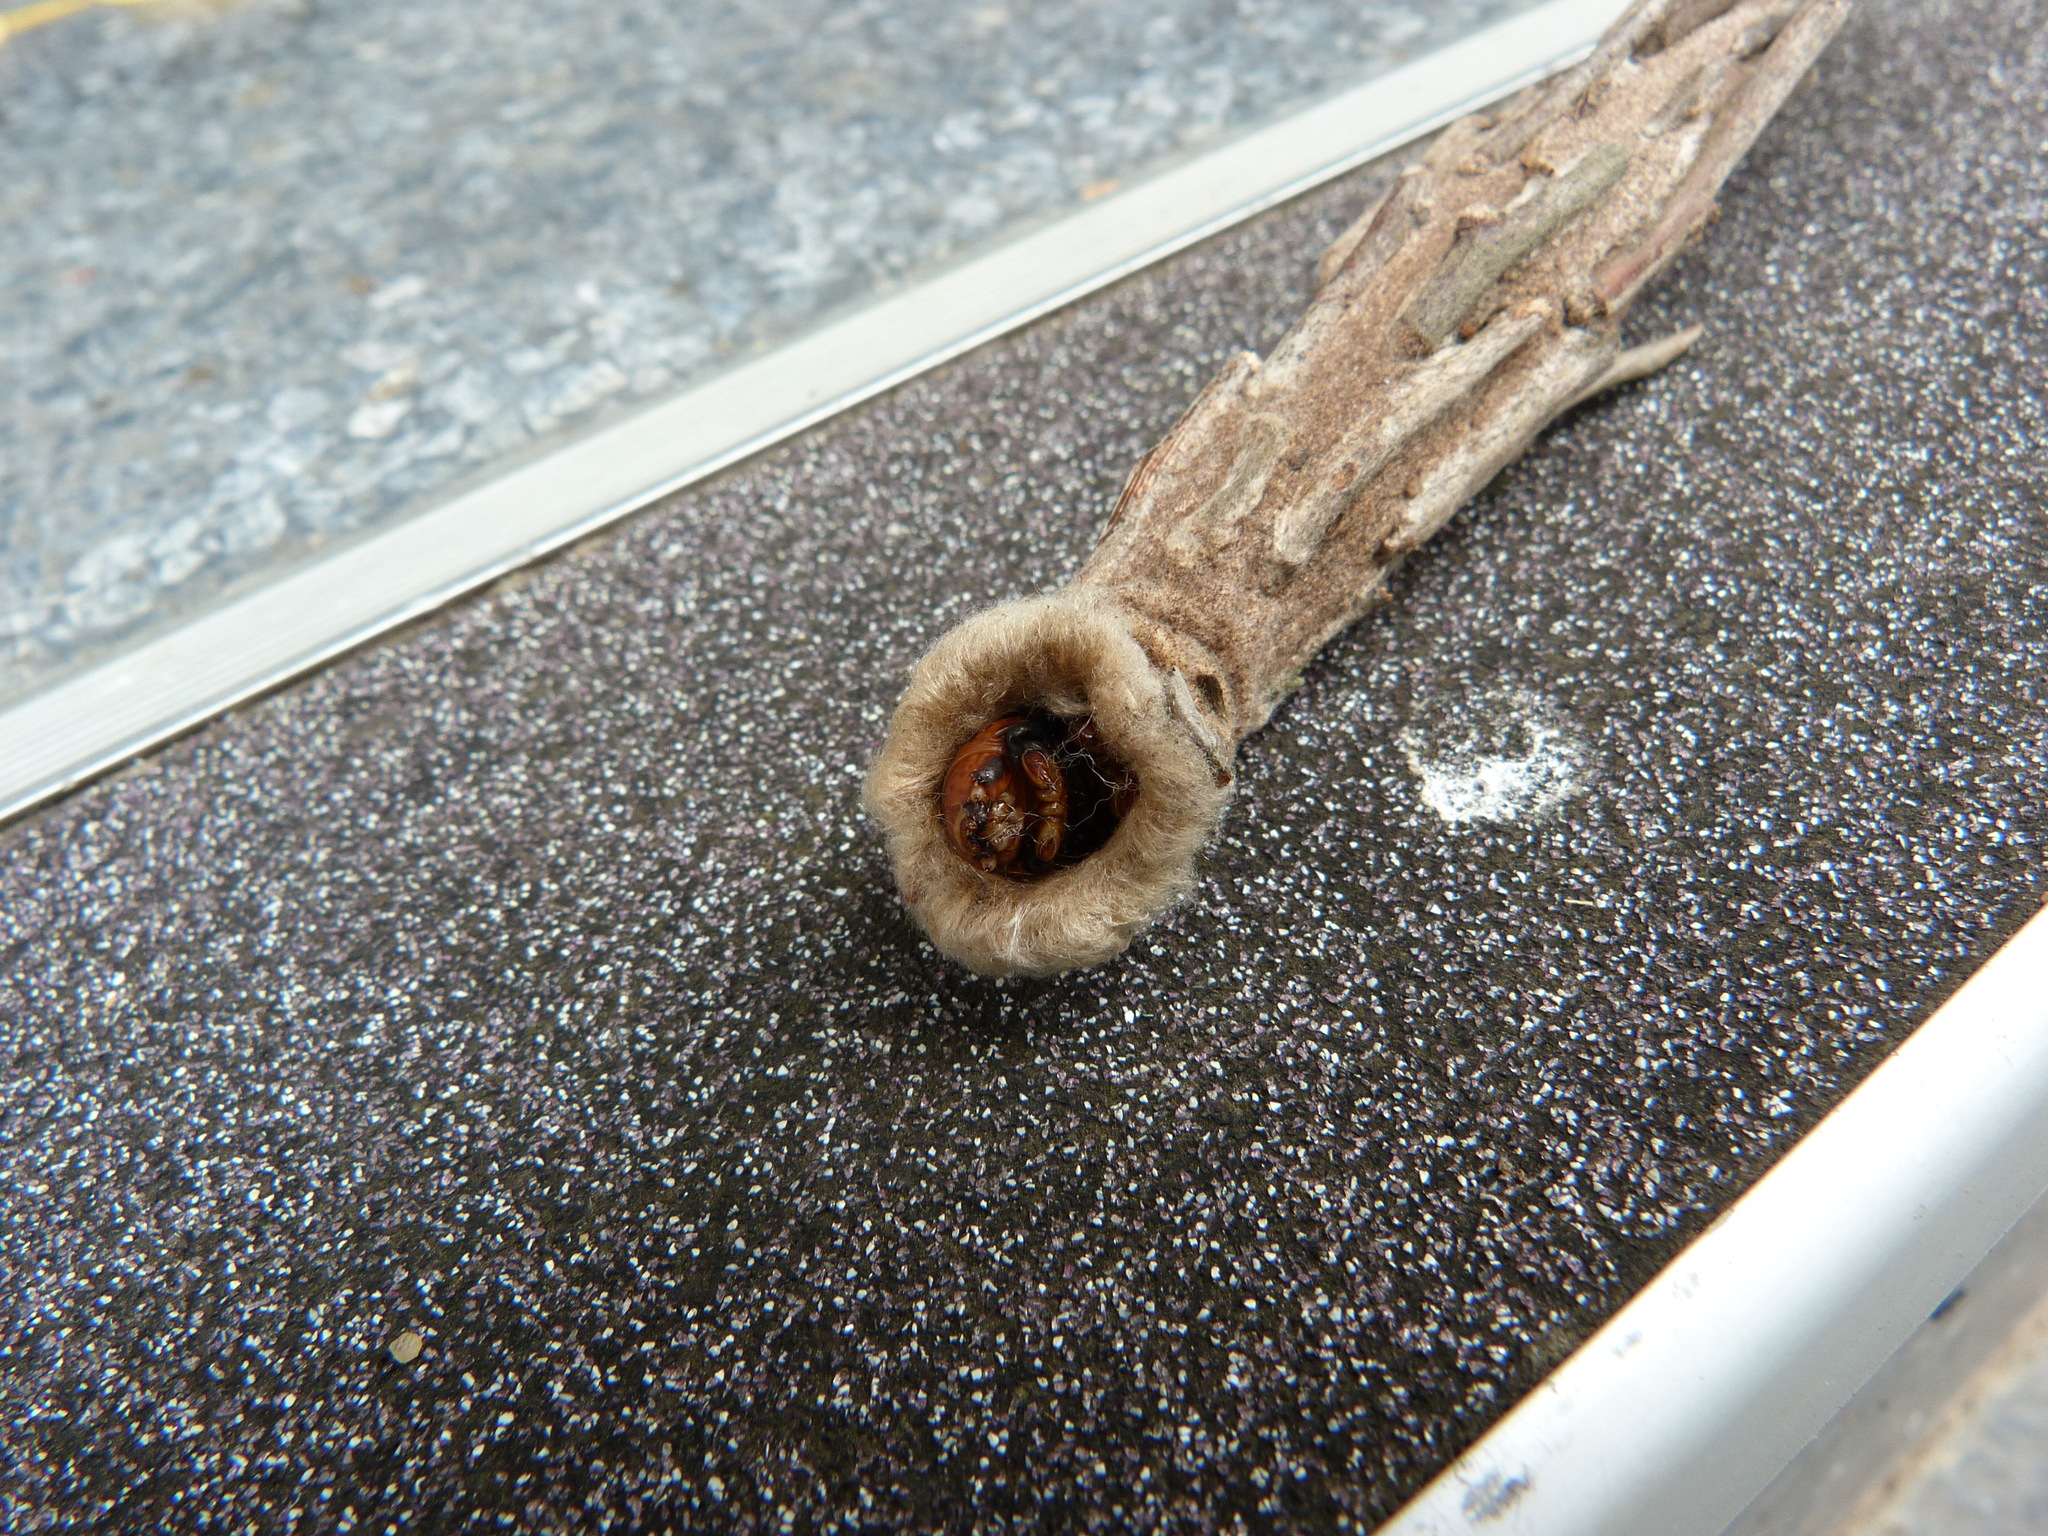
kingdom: Animalia
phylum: Arthropoda
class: Insecta
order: Lepidoptera
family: Psychidae
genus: Metura
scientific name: Metura elongatus
